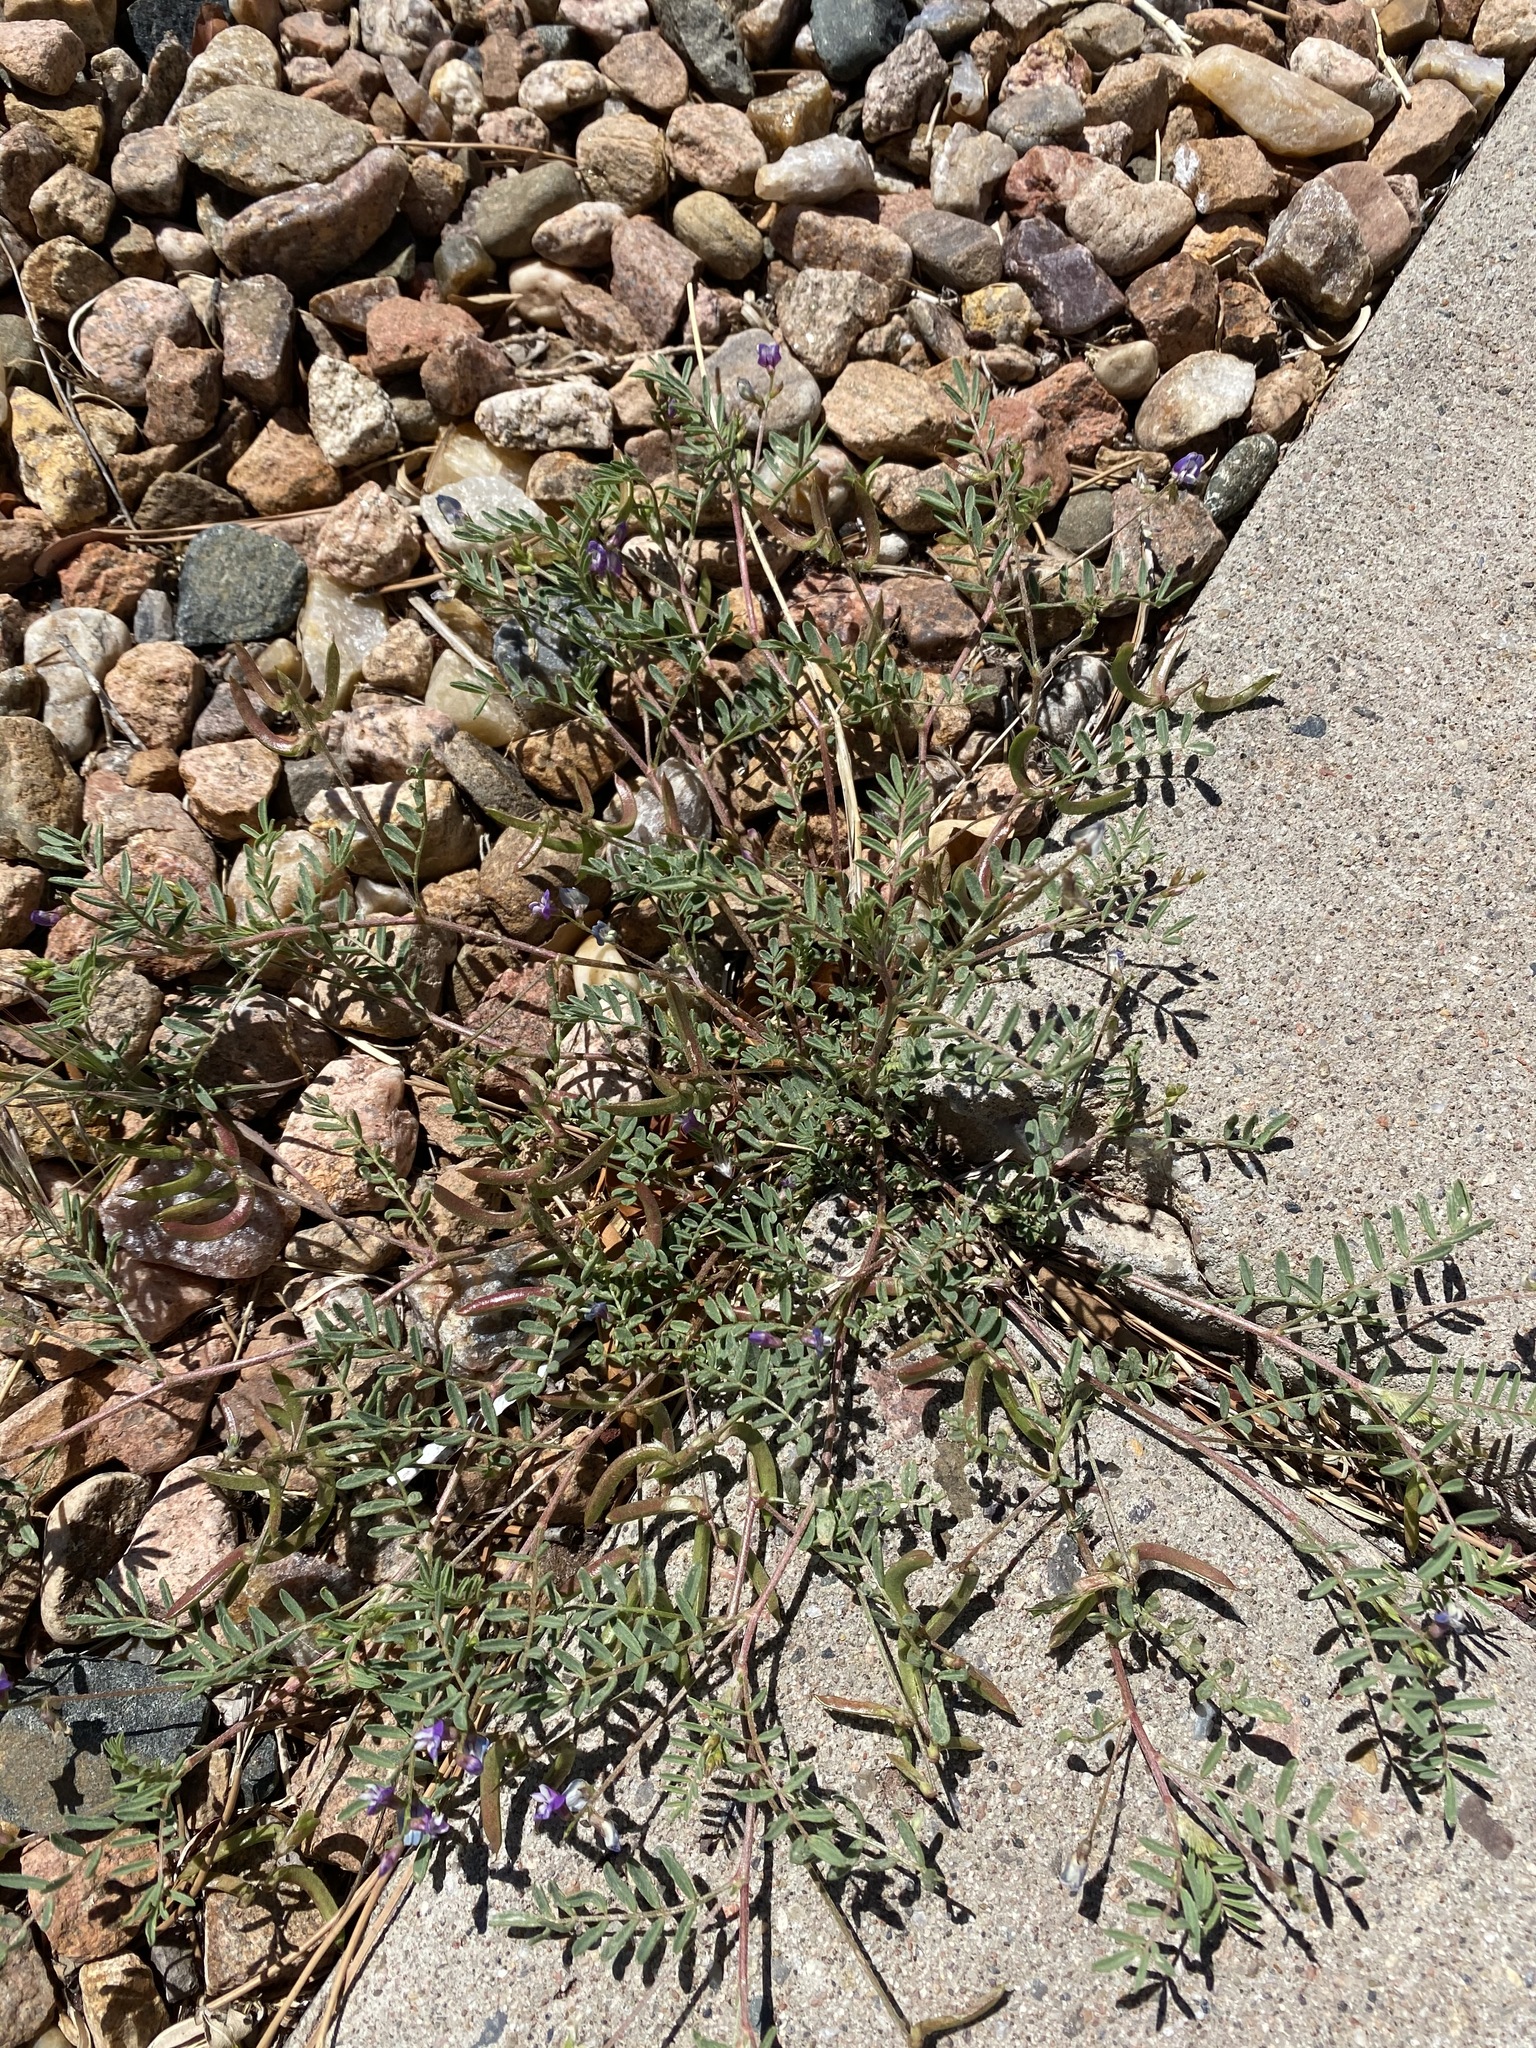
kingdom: Plantae
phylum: Tracheophyta
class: Magnoliopsida
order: Fabales
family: Fabaceae
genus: Astragalus
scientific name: Astragalus nuttallianus
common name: Smallflowered milkvetch
